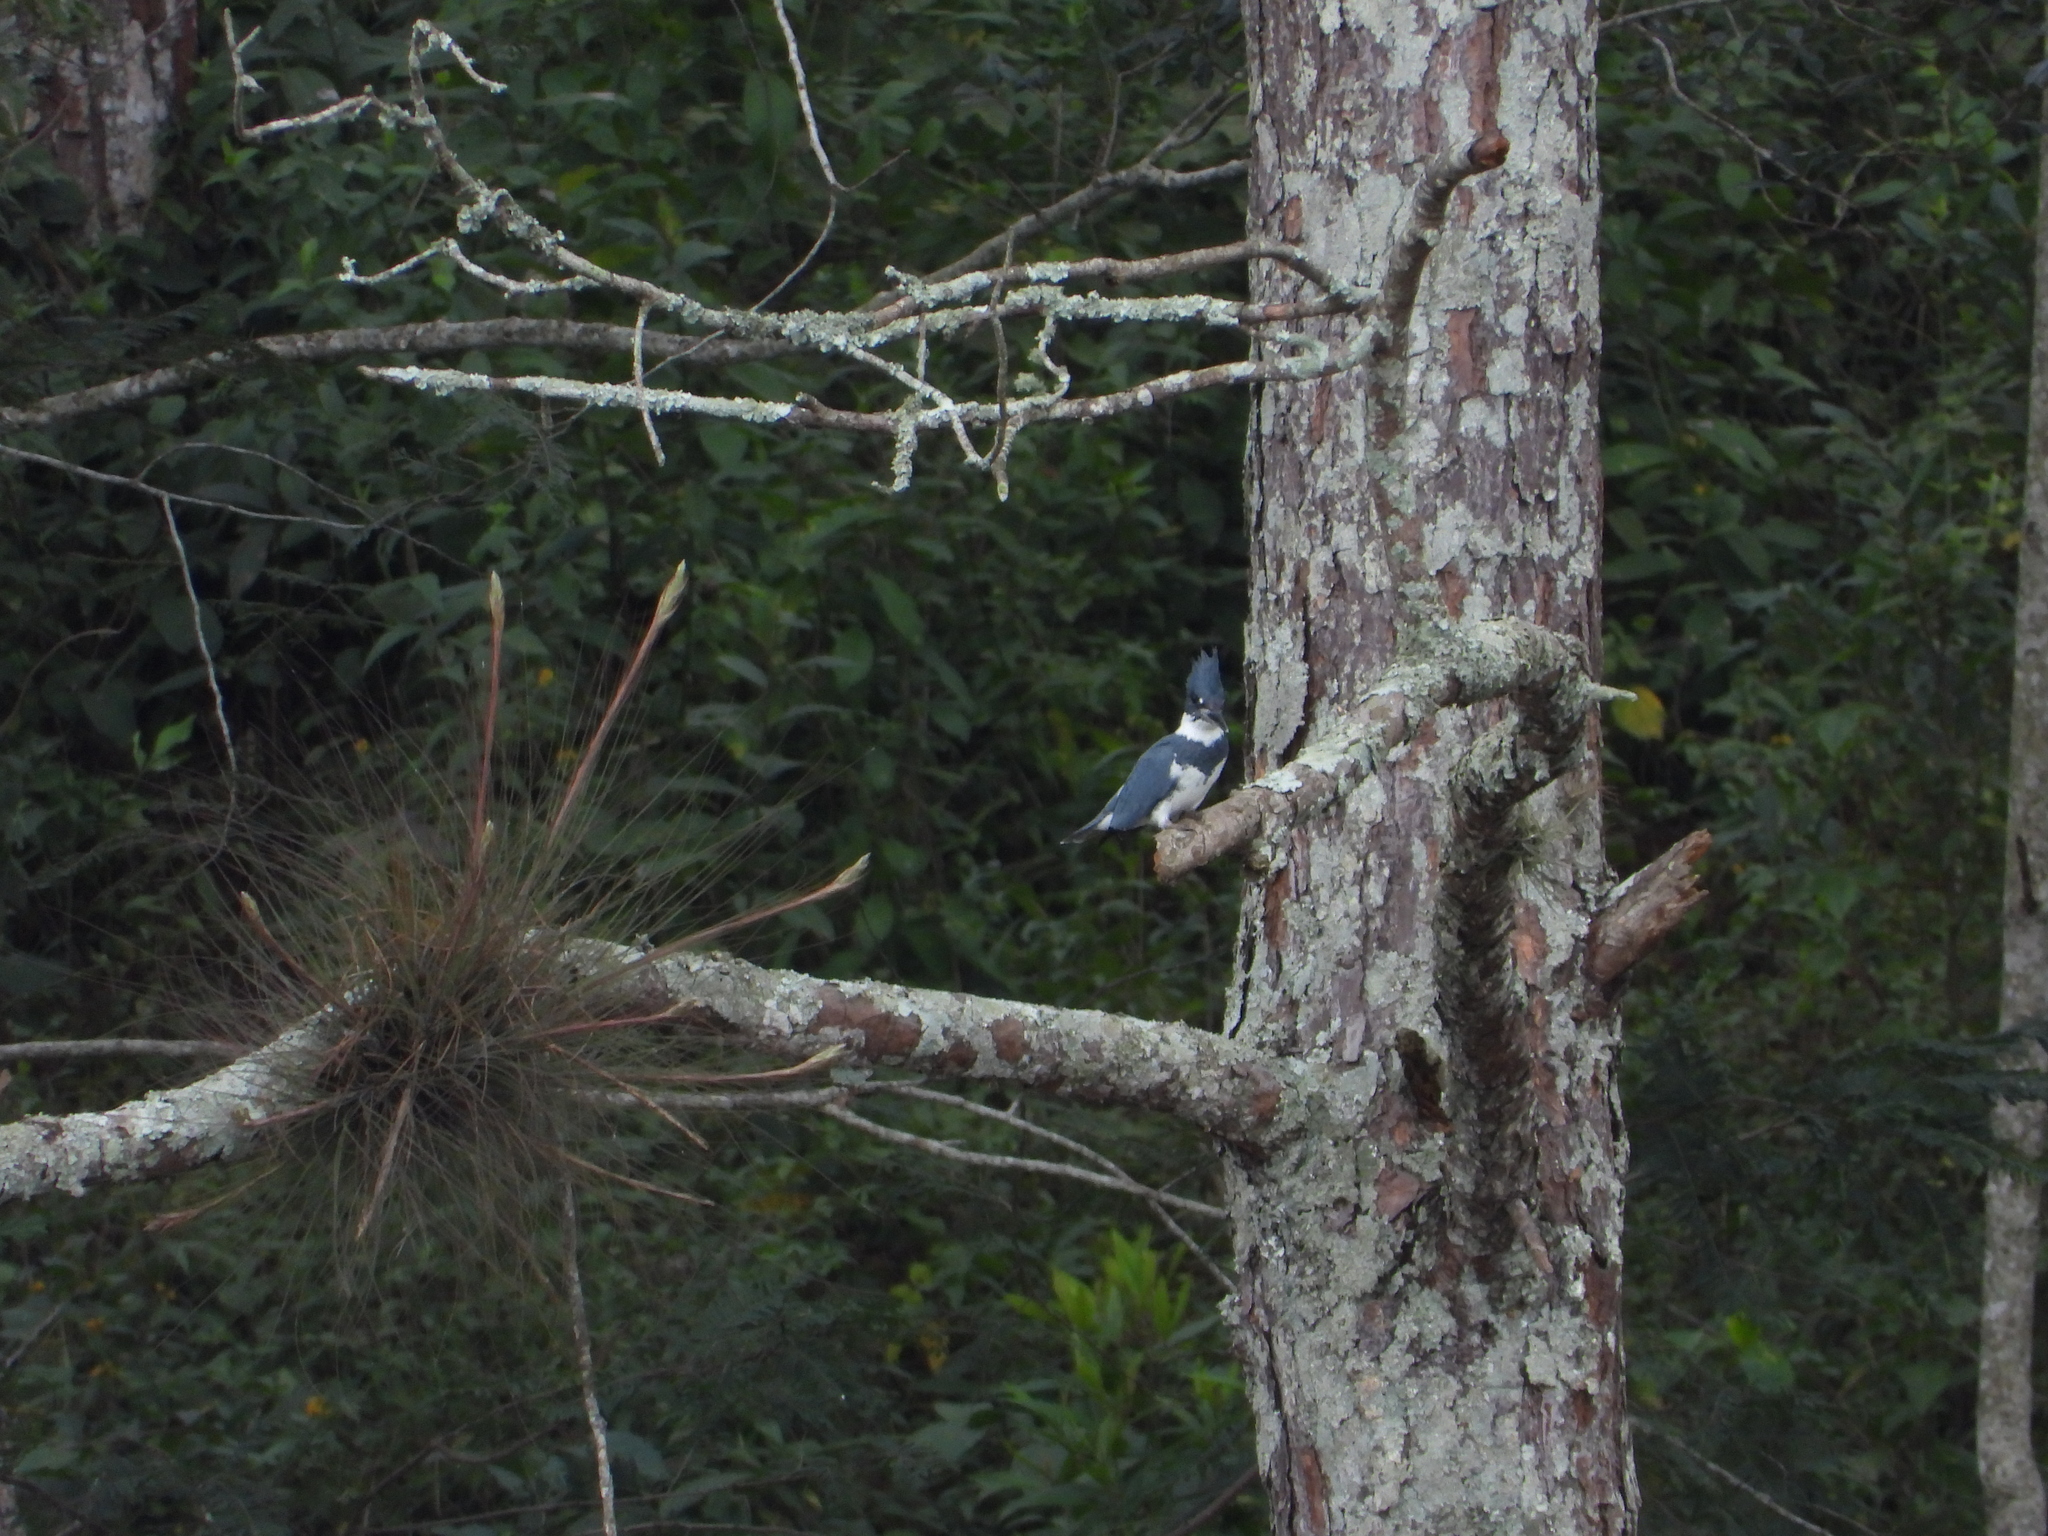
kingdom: Animalia
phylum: Chordata
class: Aves
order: Coraciiformes
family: Alcedinidae
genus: Megaceryle
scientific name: Megaceryle alcyon
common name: Belted kingfisher
